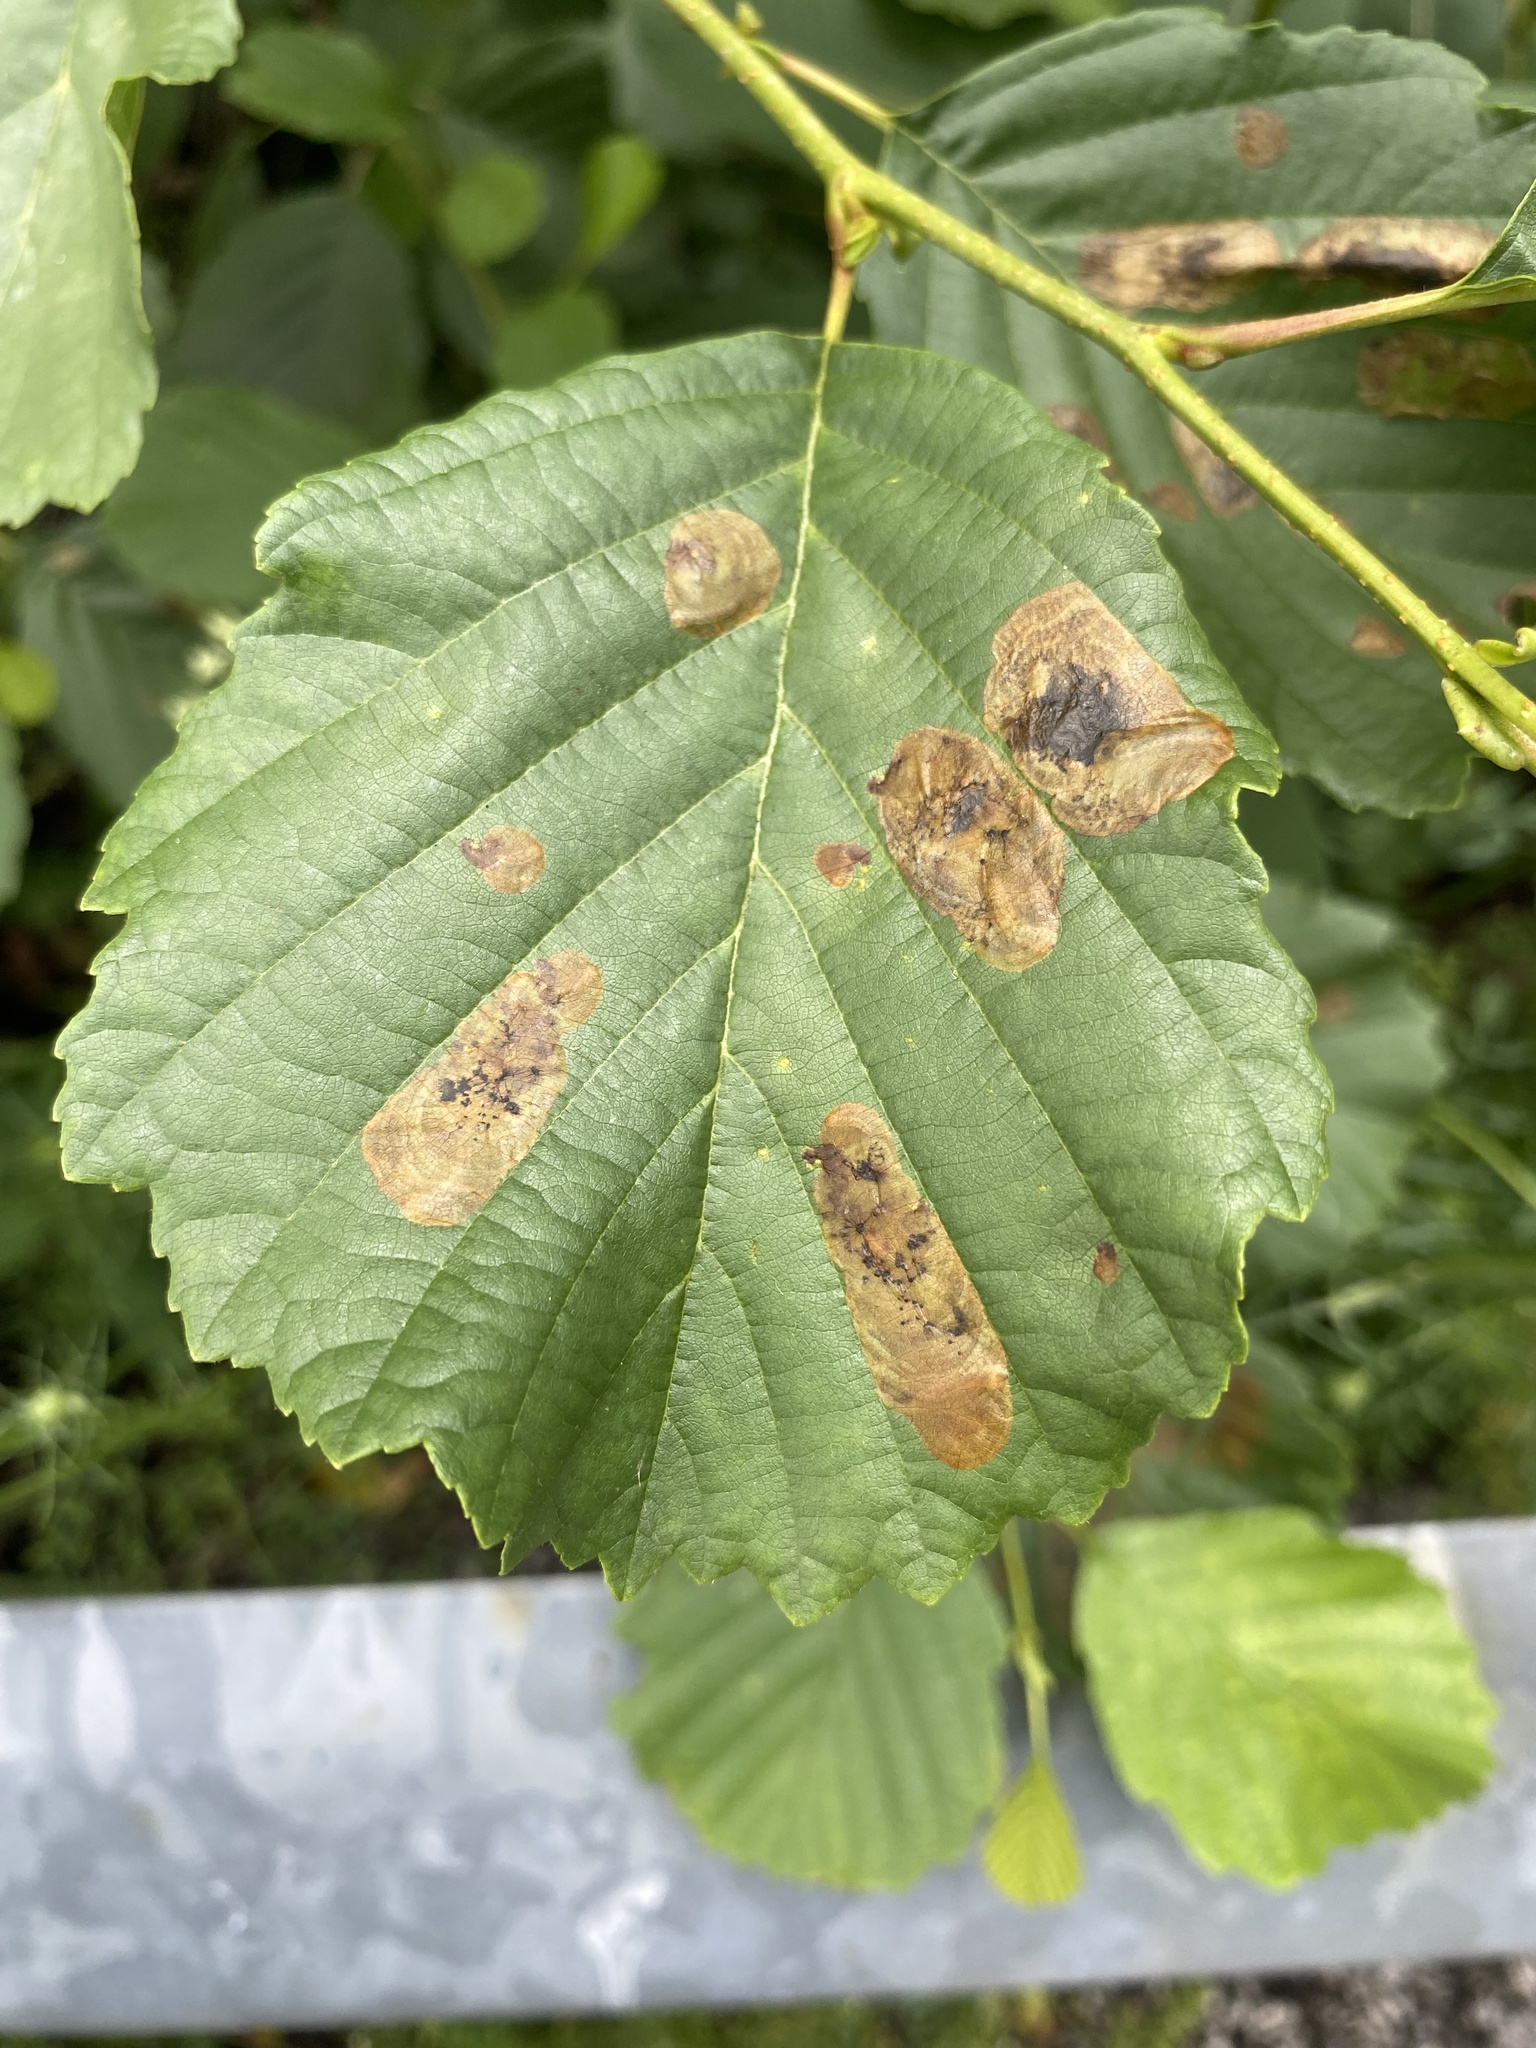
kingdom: Animalia
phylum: Arthropoda
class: Insecta
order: Hymenoptera
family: Tenthredinidae
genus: Fenusa
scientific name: Fenusa dohrnii
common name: European alder leafminer
